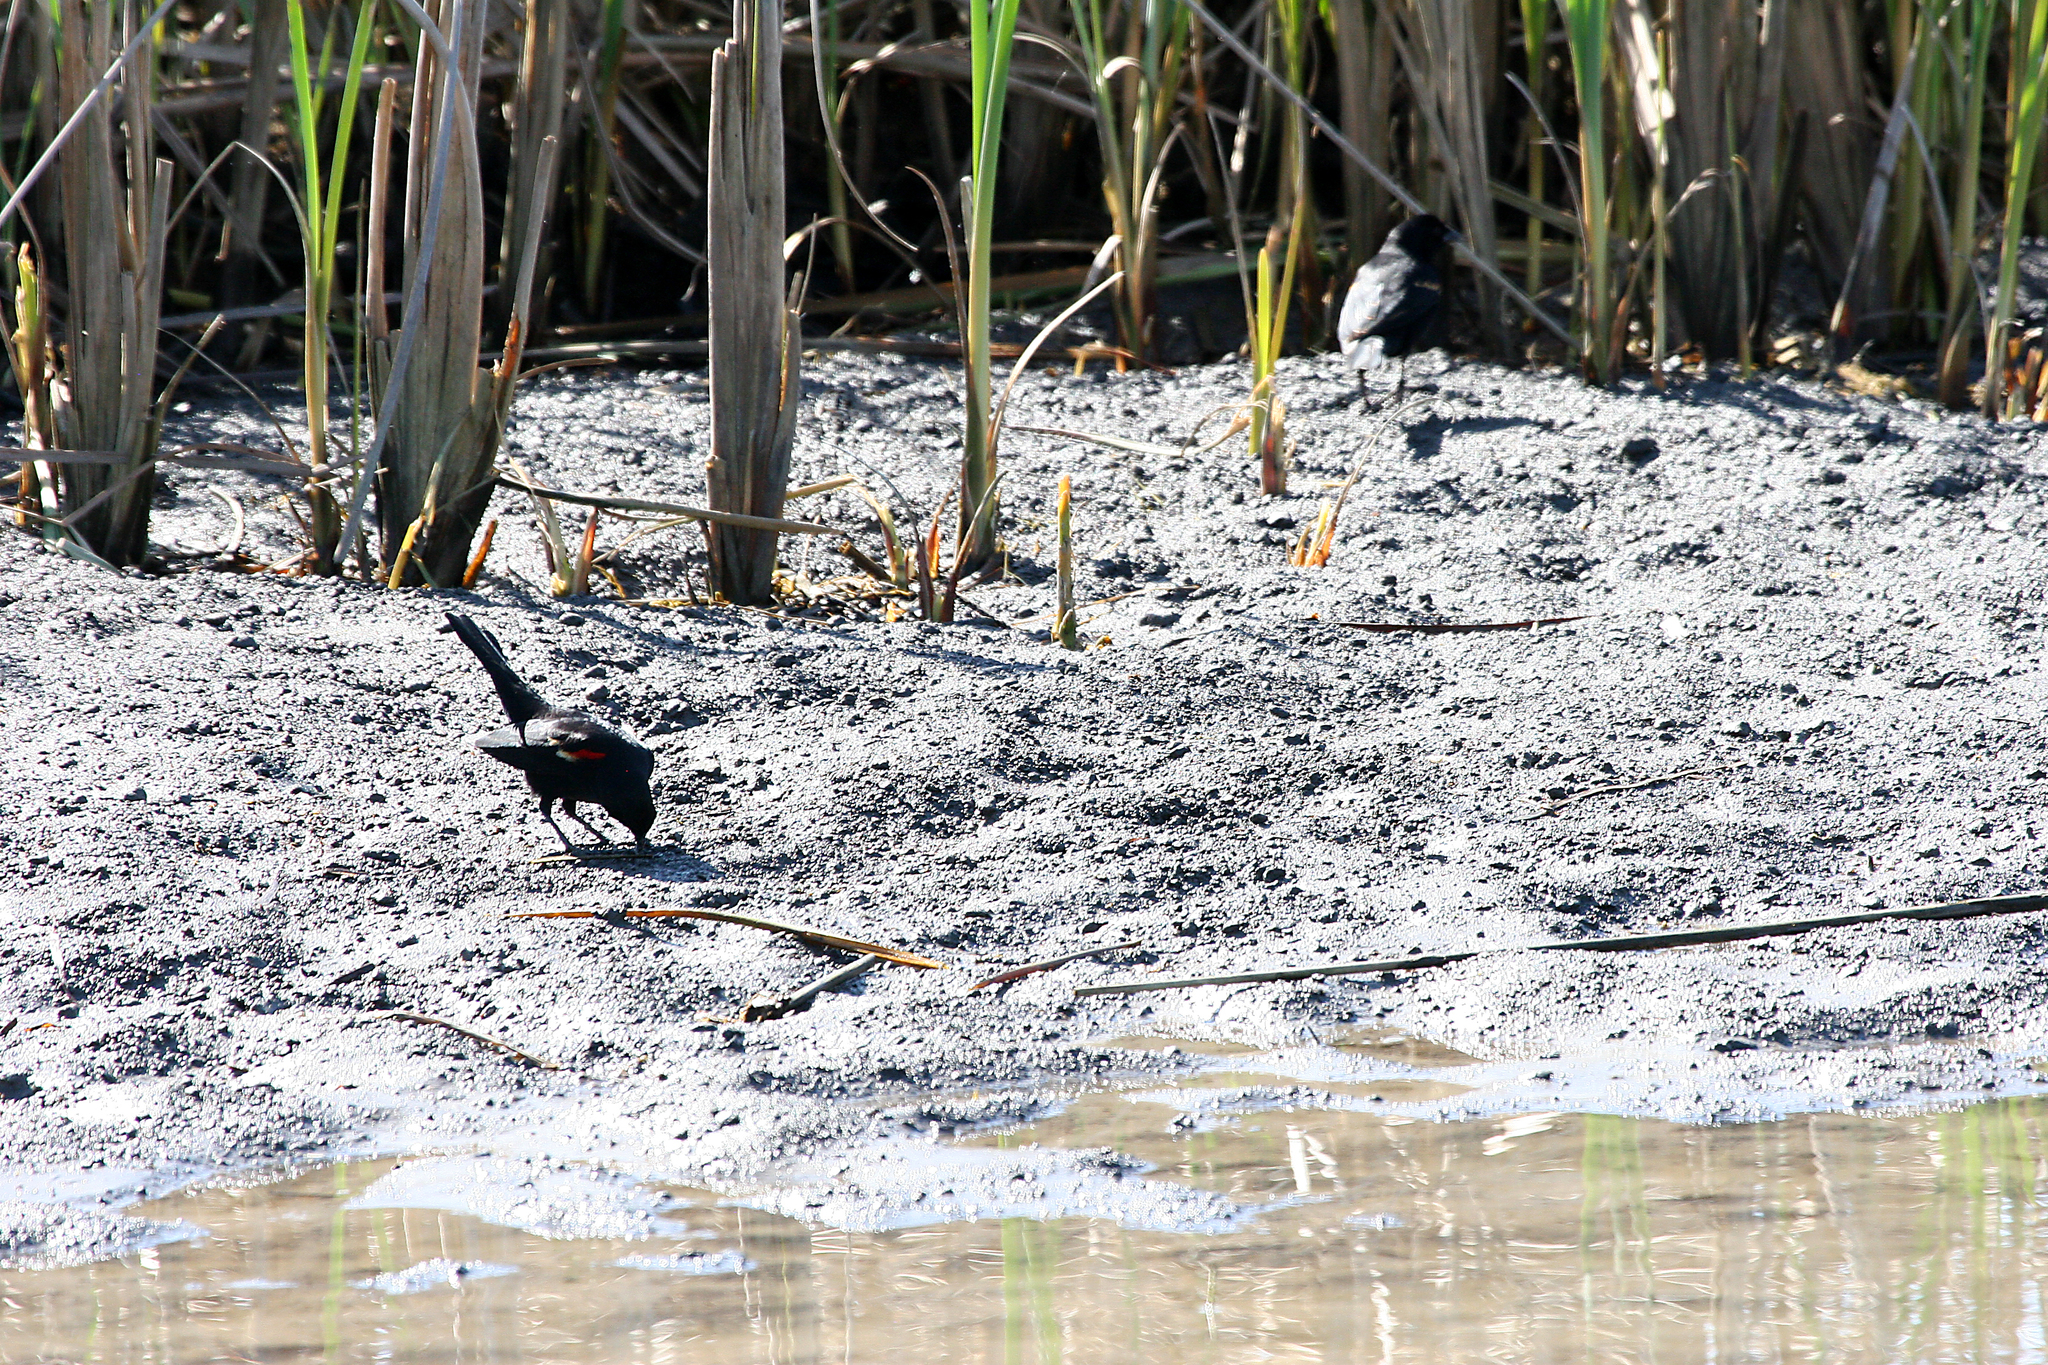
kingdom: Animalia
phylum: Chordata
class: Aves
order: Passeriformes
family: Icteridae
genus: Agelaius
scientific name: Agelaius phoeniceus
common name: Red-winged blackbird
